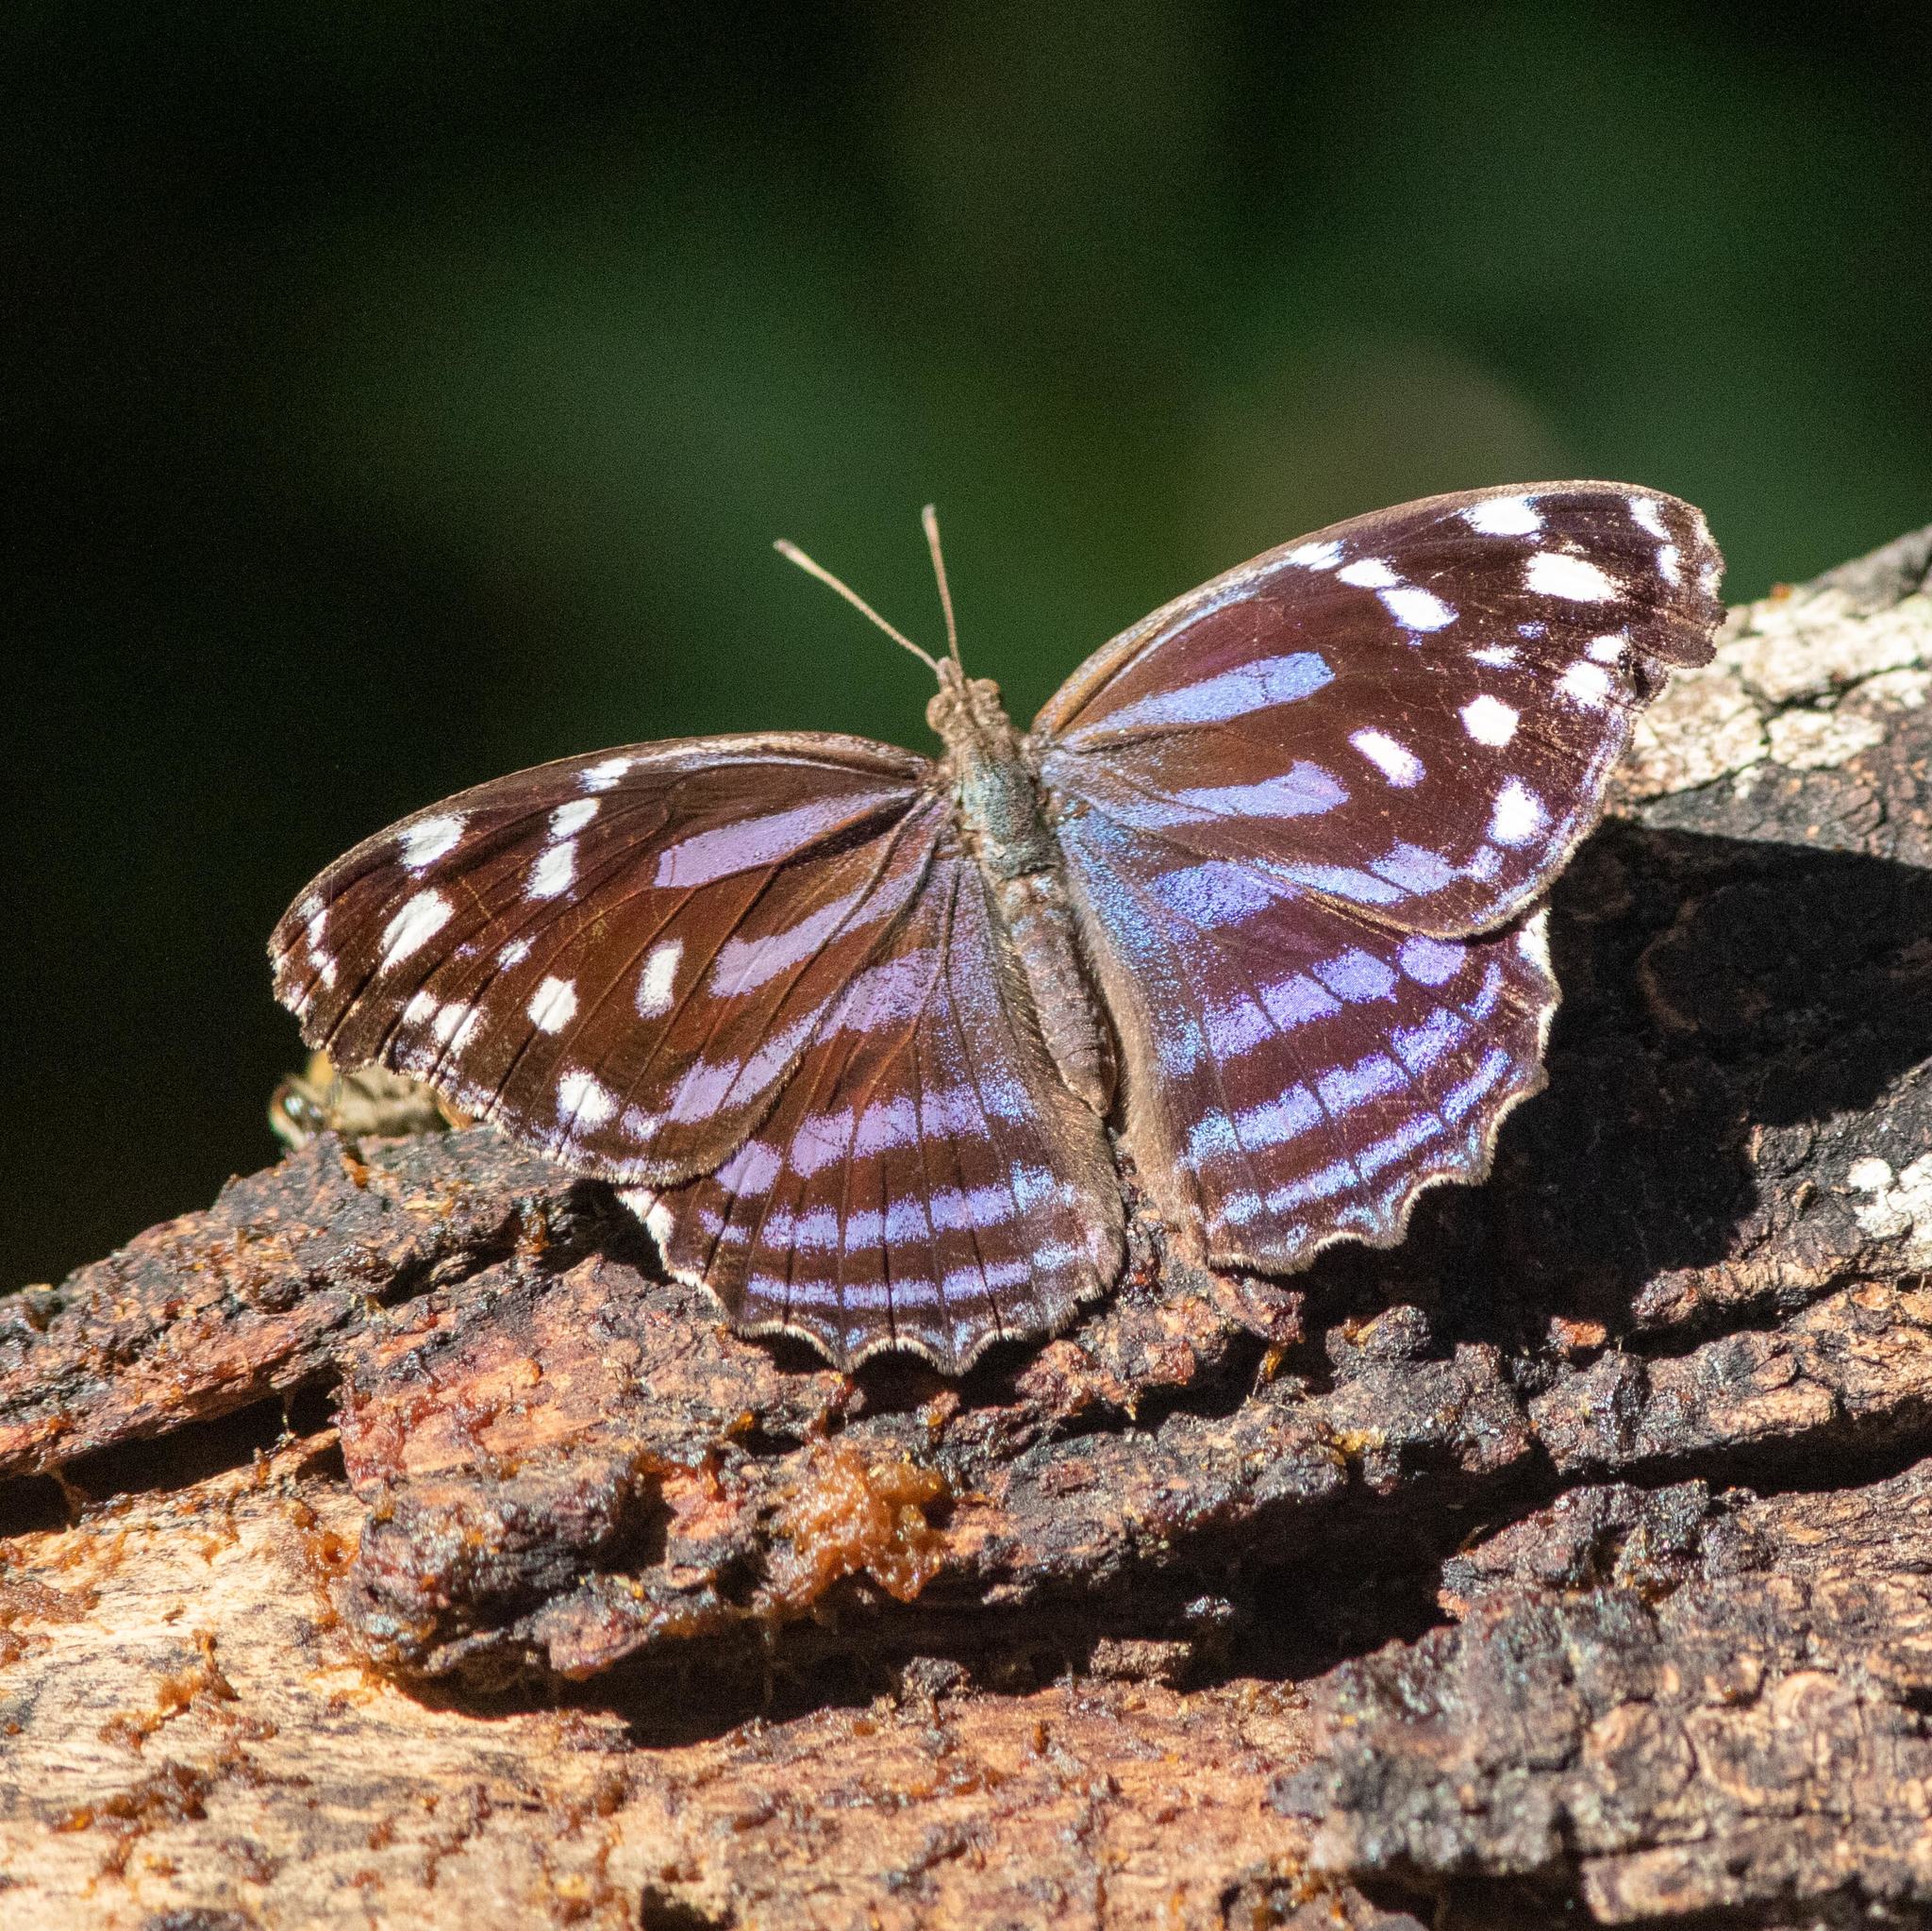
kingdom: Animalia
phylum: Arthropoda
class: Insecta
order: Lepidoptera
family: Nymphalidae
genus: Myscelia
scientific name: Myscelia ethusa
